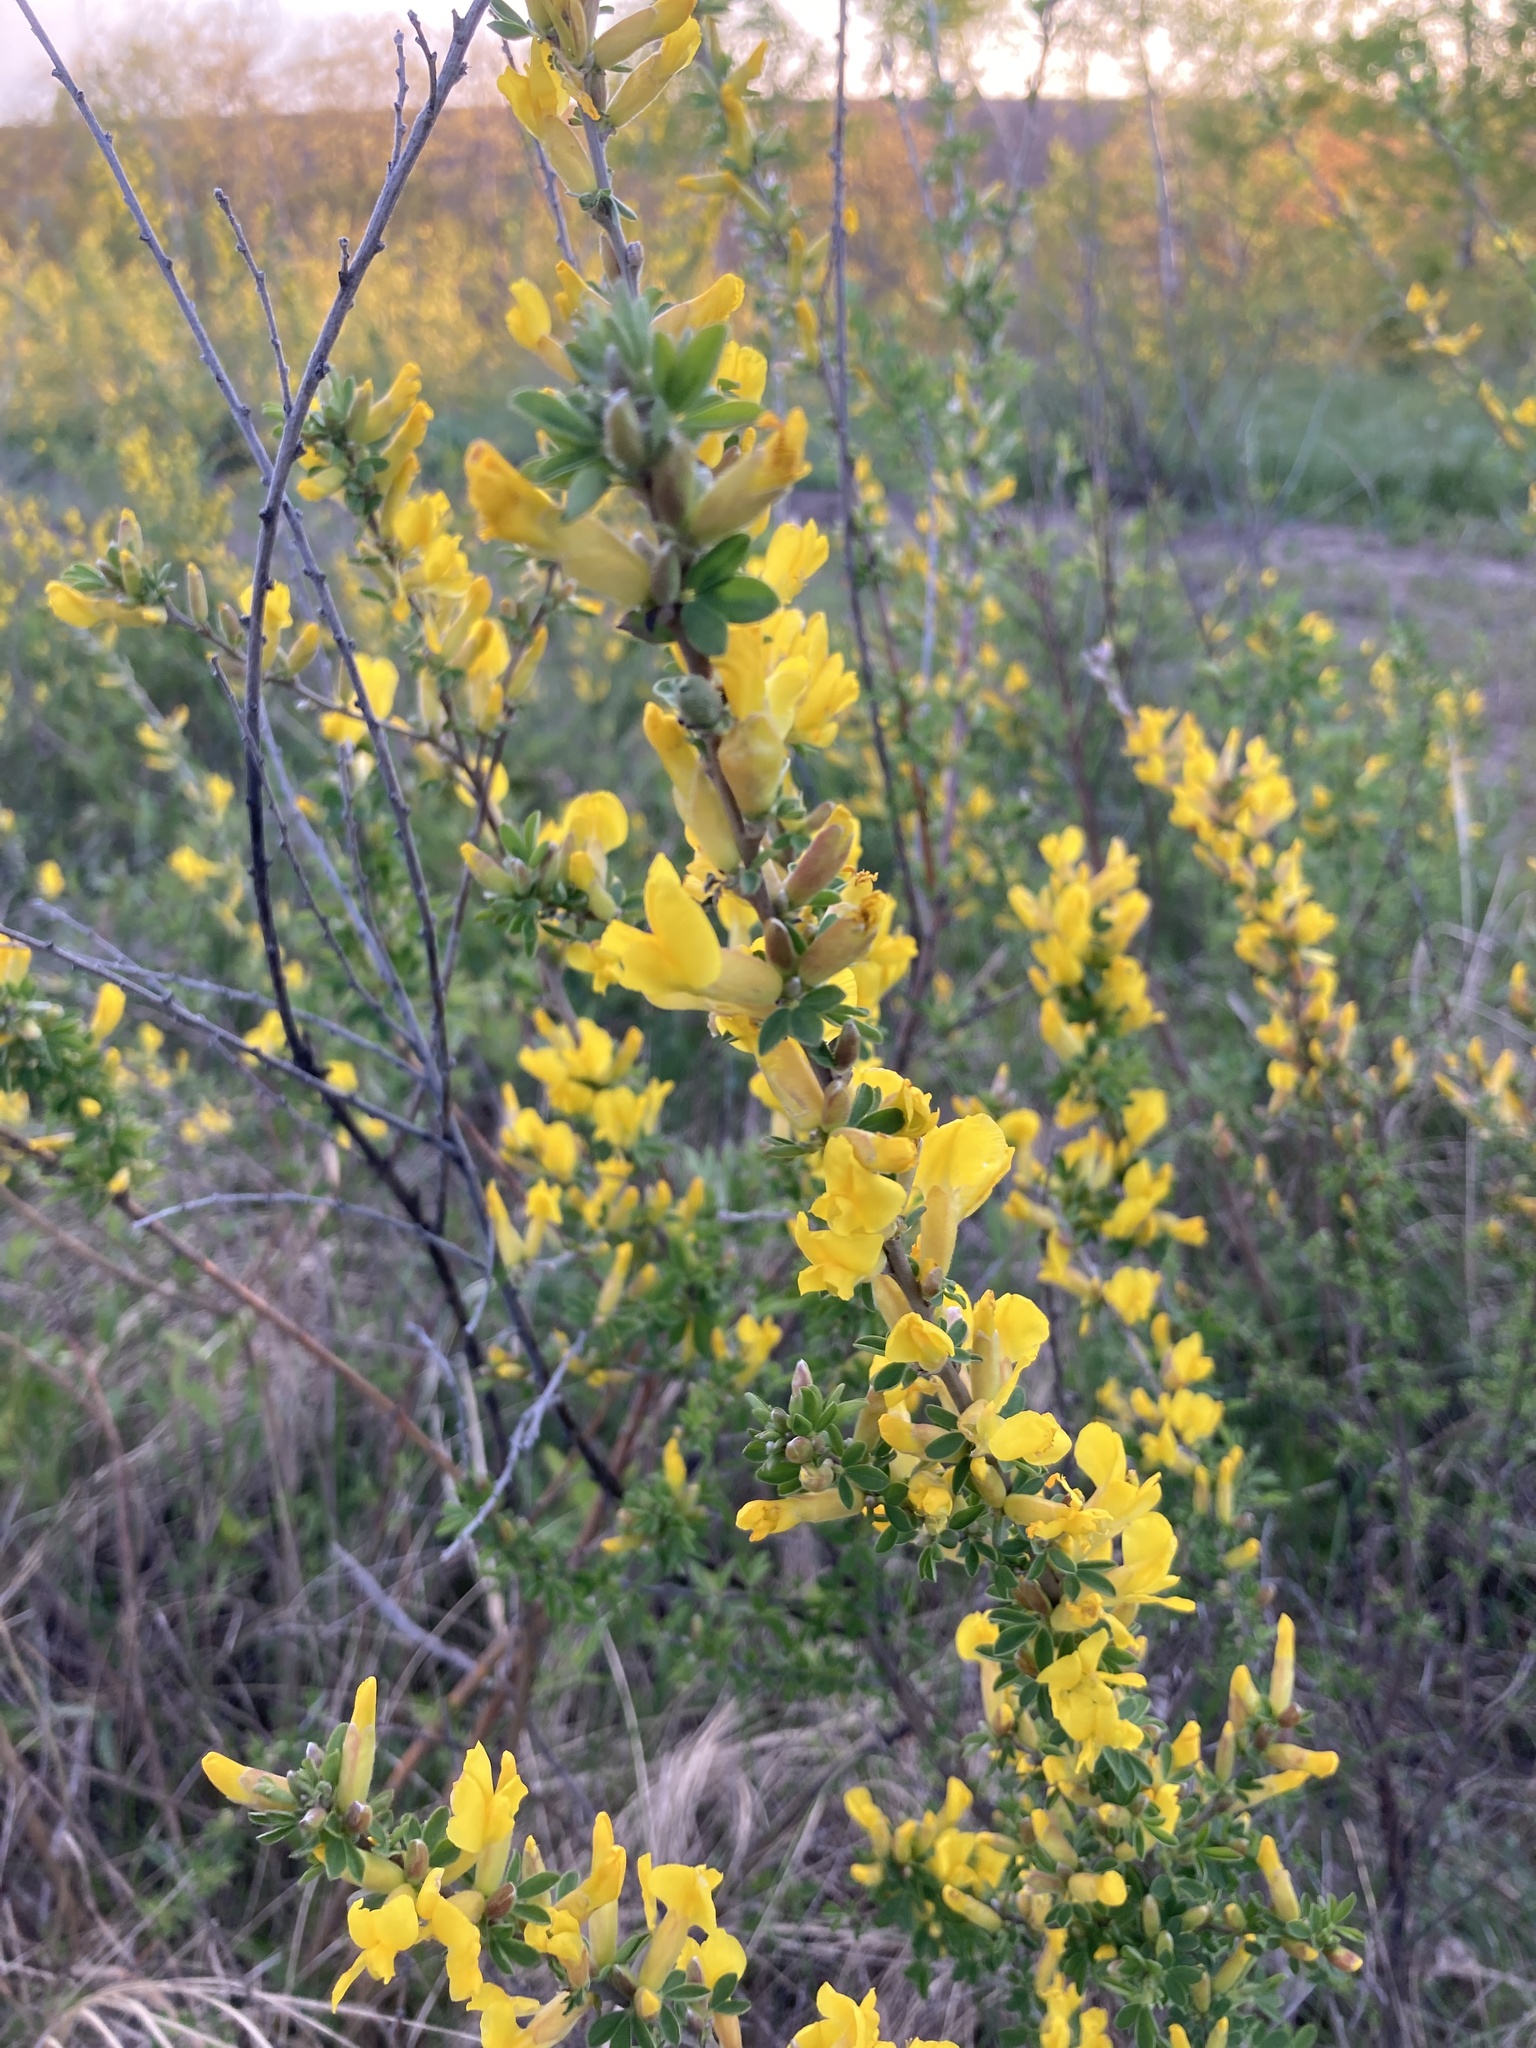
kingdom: Plantae
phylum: Tracheophyta
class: Magnoliopsida
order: Fabales
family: Fabaceae
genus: Chamaecytisus
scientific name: Chamaecytisus ruthenicus
